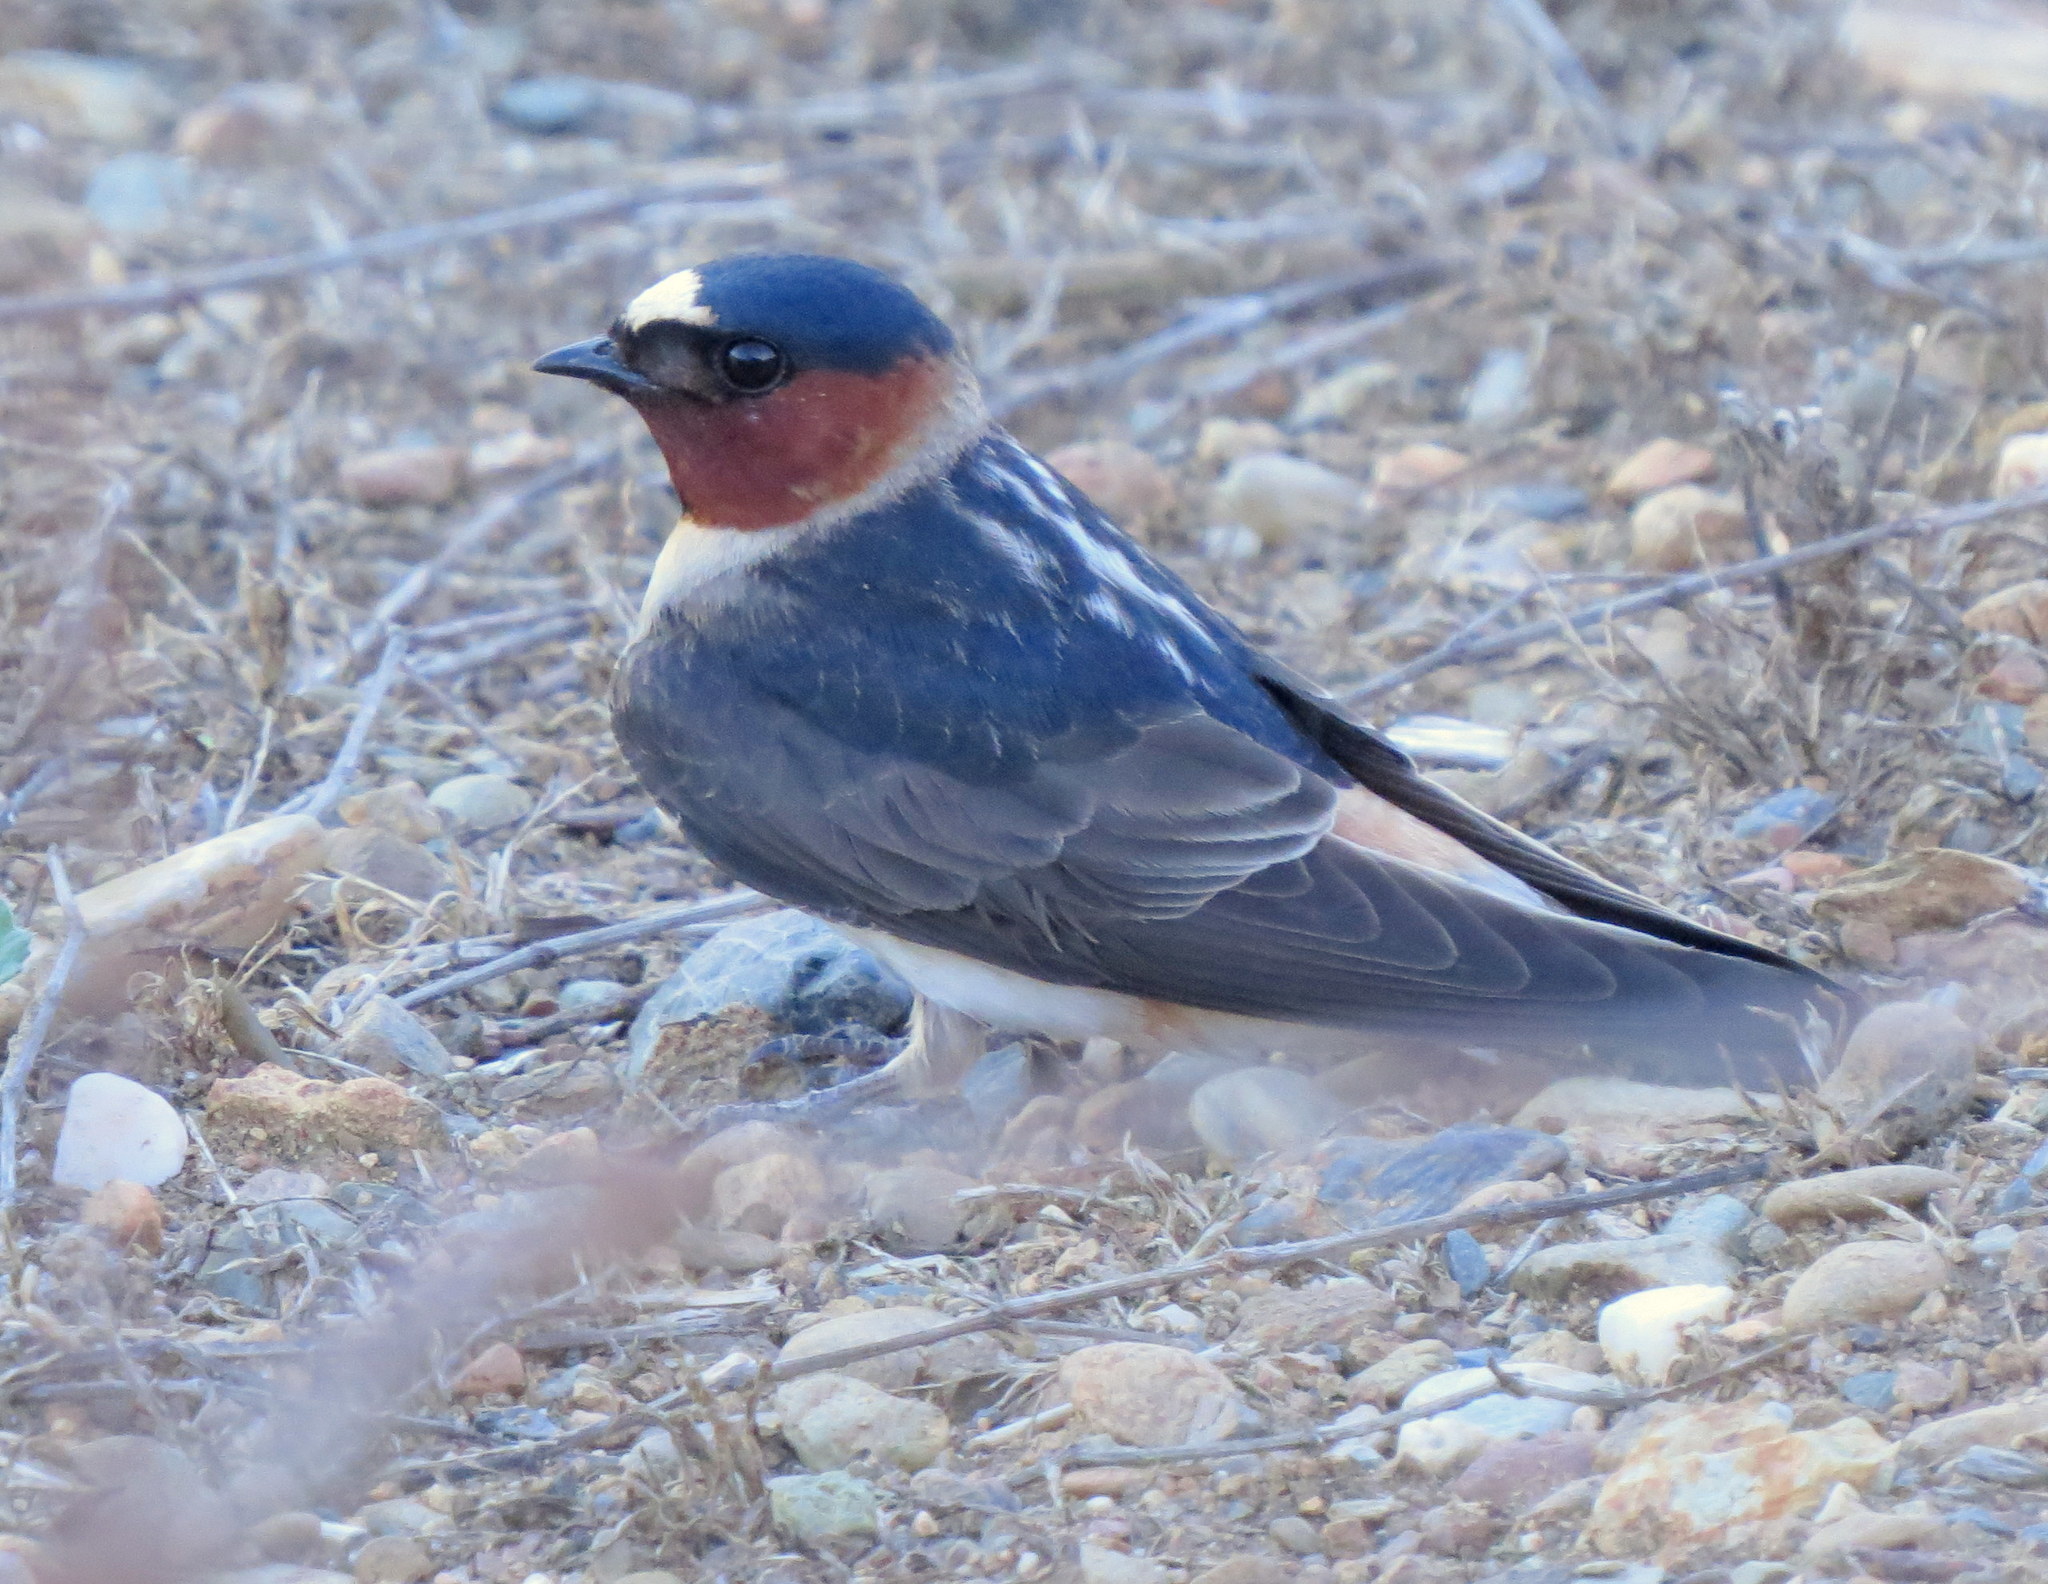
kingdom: Animalia
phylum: Chordata
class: Aves
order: Passeriformes
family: Hirundinidae
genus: Petrochelidon
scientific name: Petrochelidon pyrrhonota
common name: American cliff swallow
